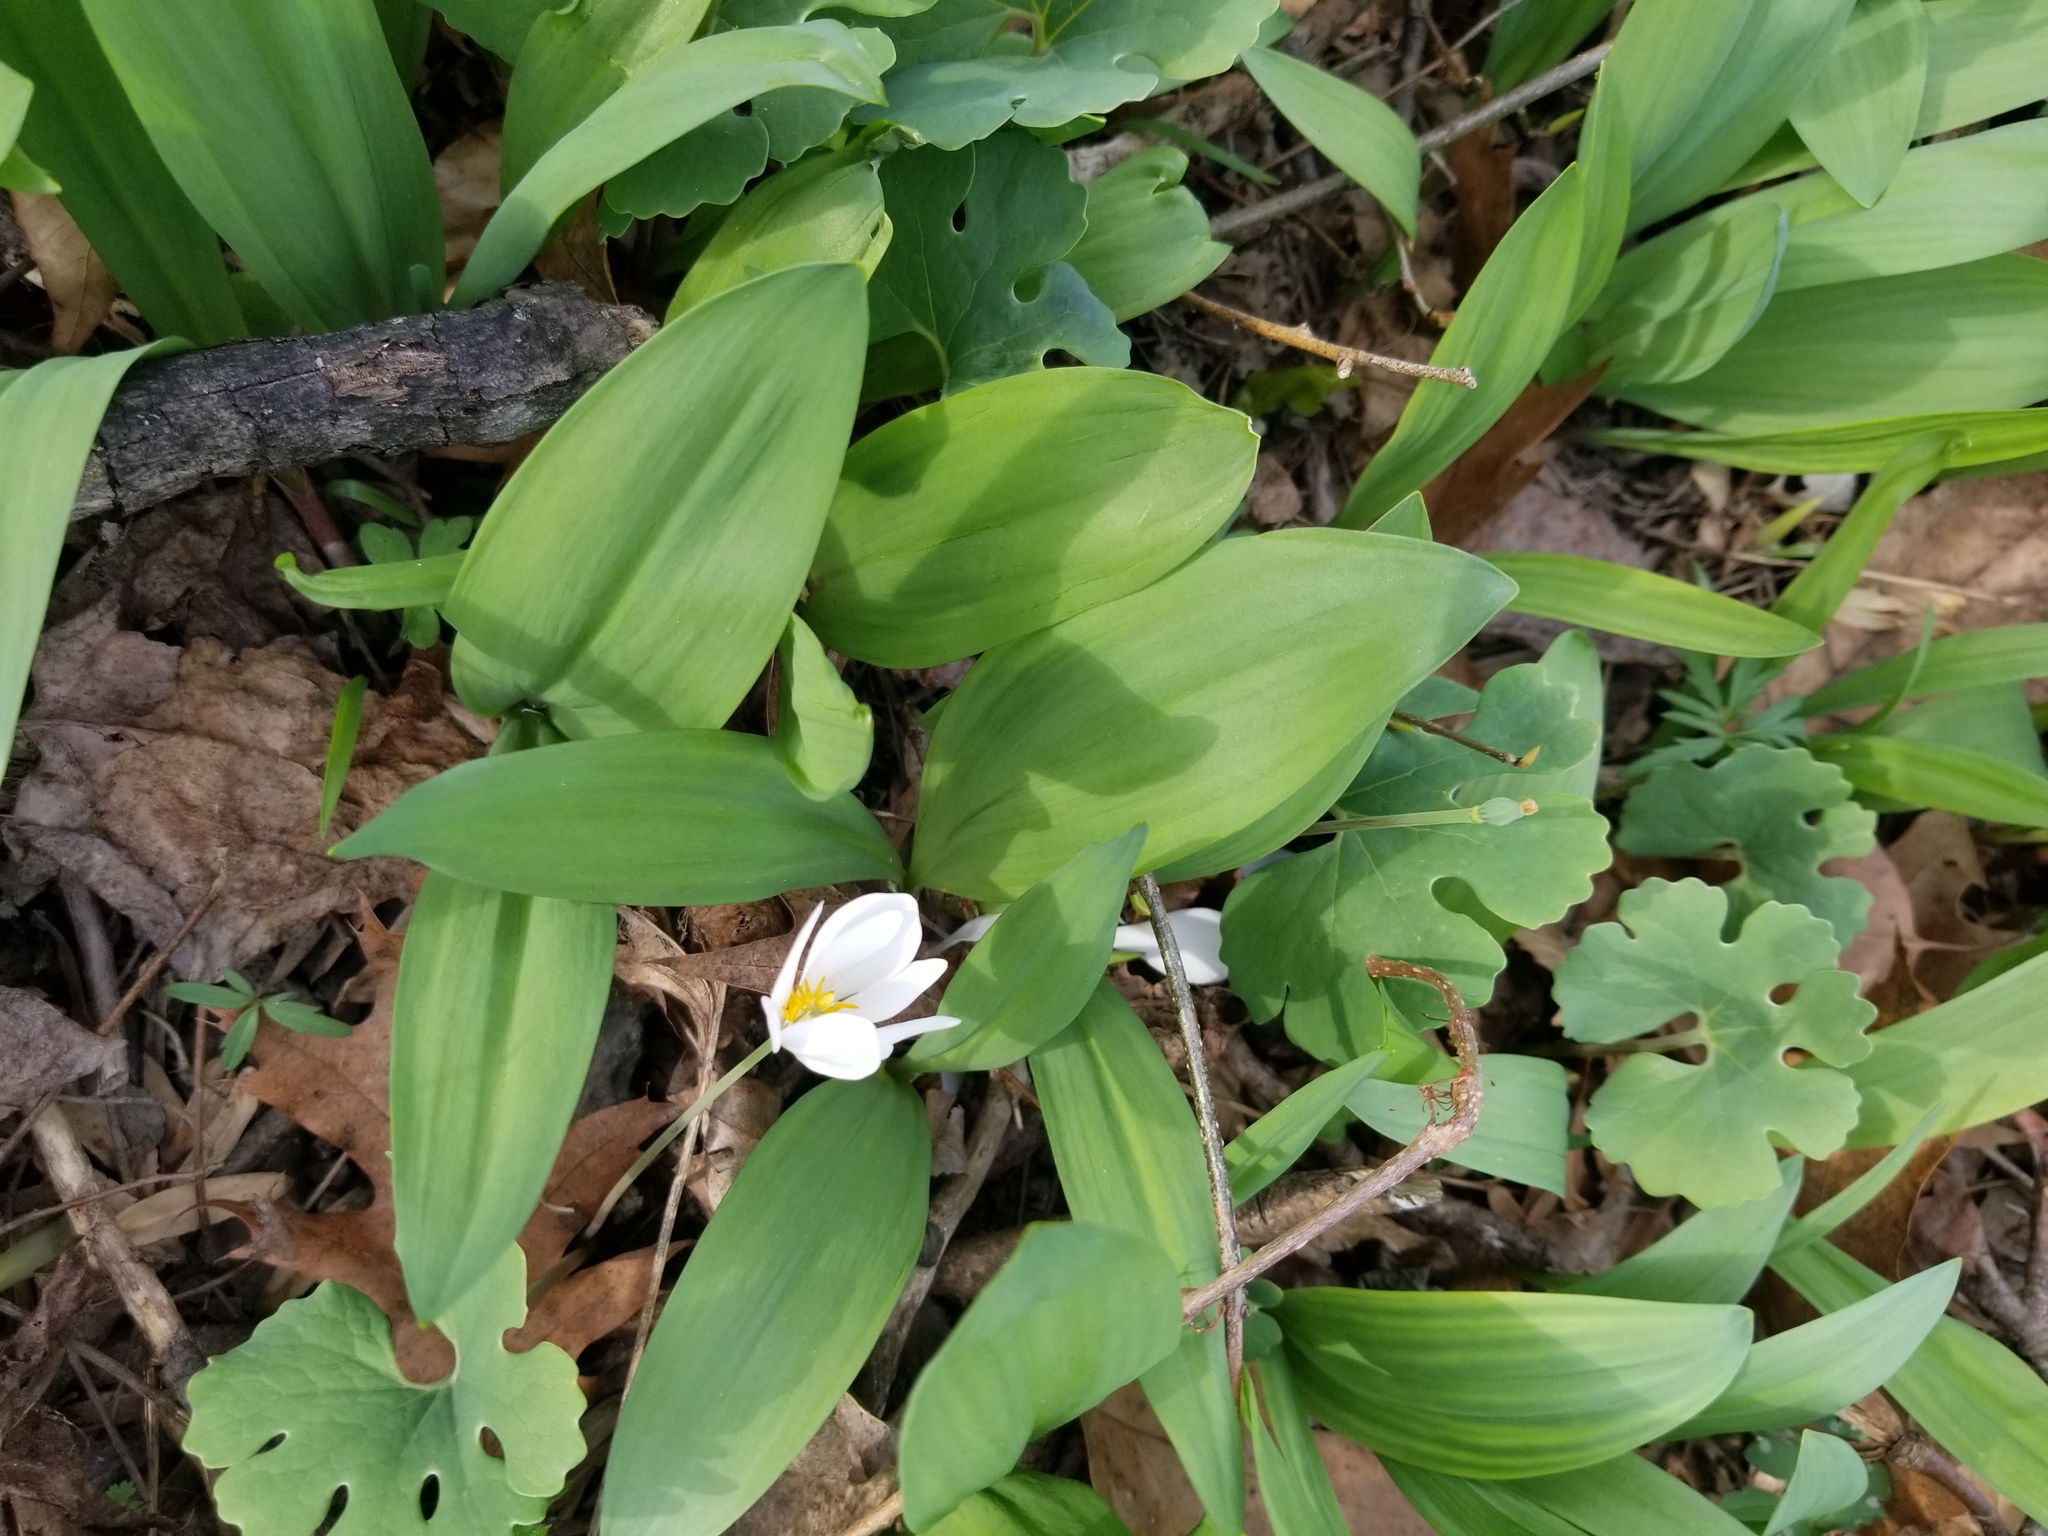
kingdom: Plantae
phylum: Tracheophyta
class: Magnoliopsida
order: Ranunculales
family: Papaveraceae
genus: Sanguinaria
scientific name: Sanguinaria canadensis
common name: Bloodroot
